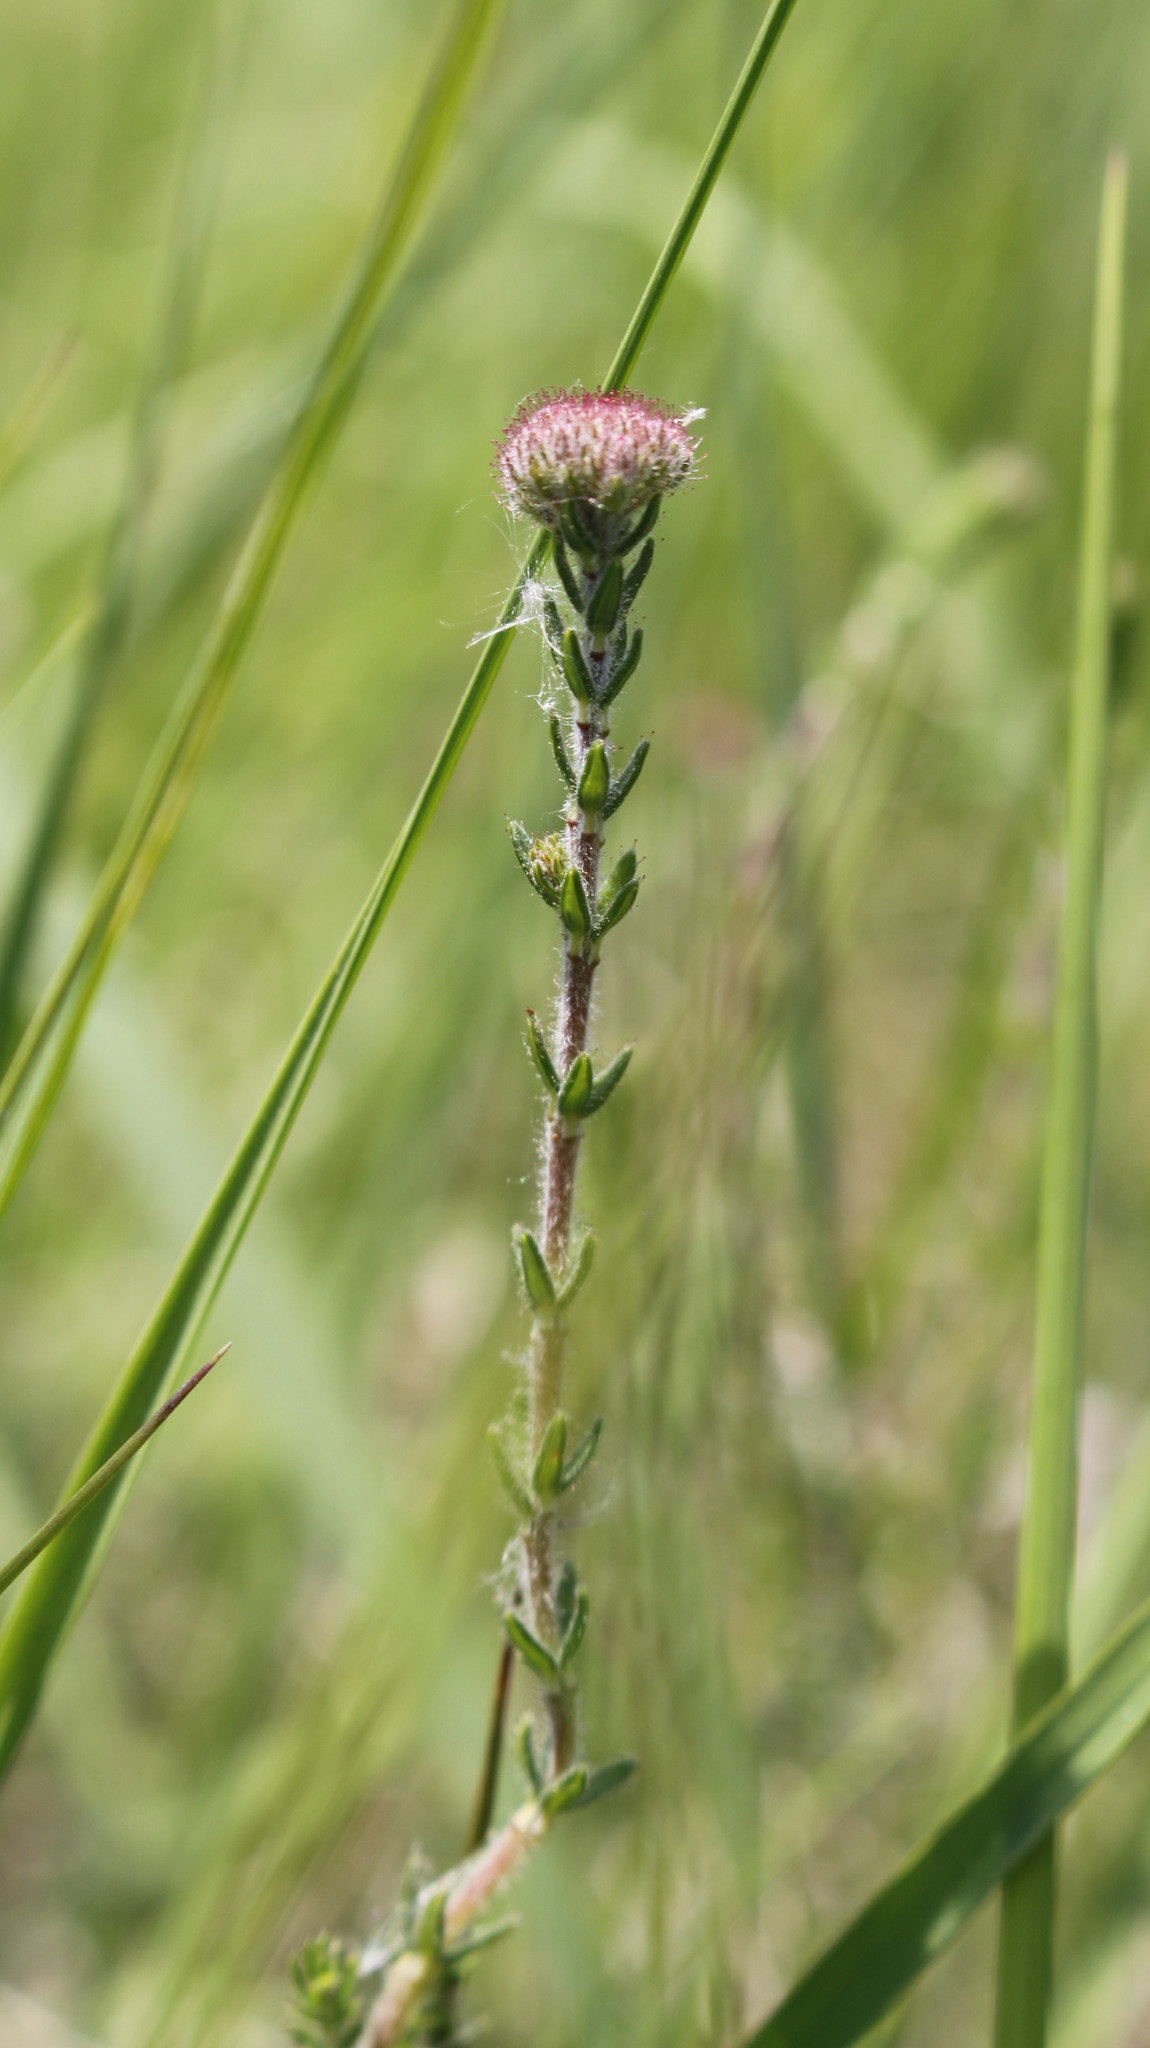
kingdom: Plantae
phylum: Tracheophyta
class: Magnoliopsida
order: Ericales
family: Ericaceae
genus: Erica
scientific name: Erica tetralix
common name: Cross-leaved heath
